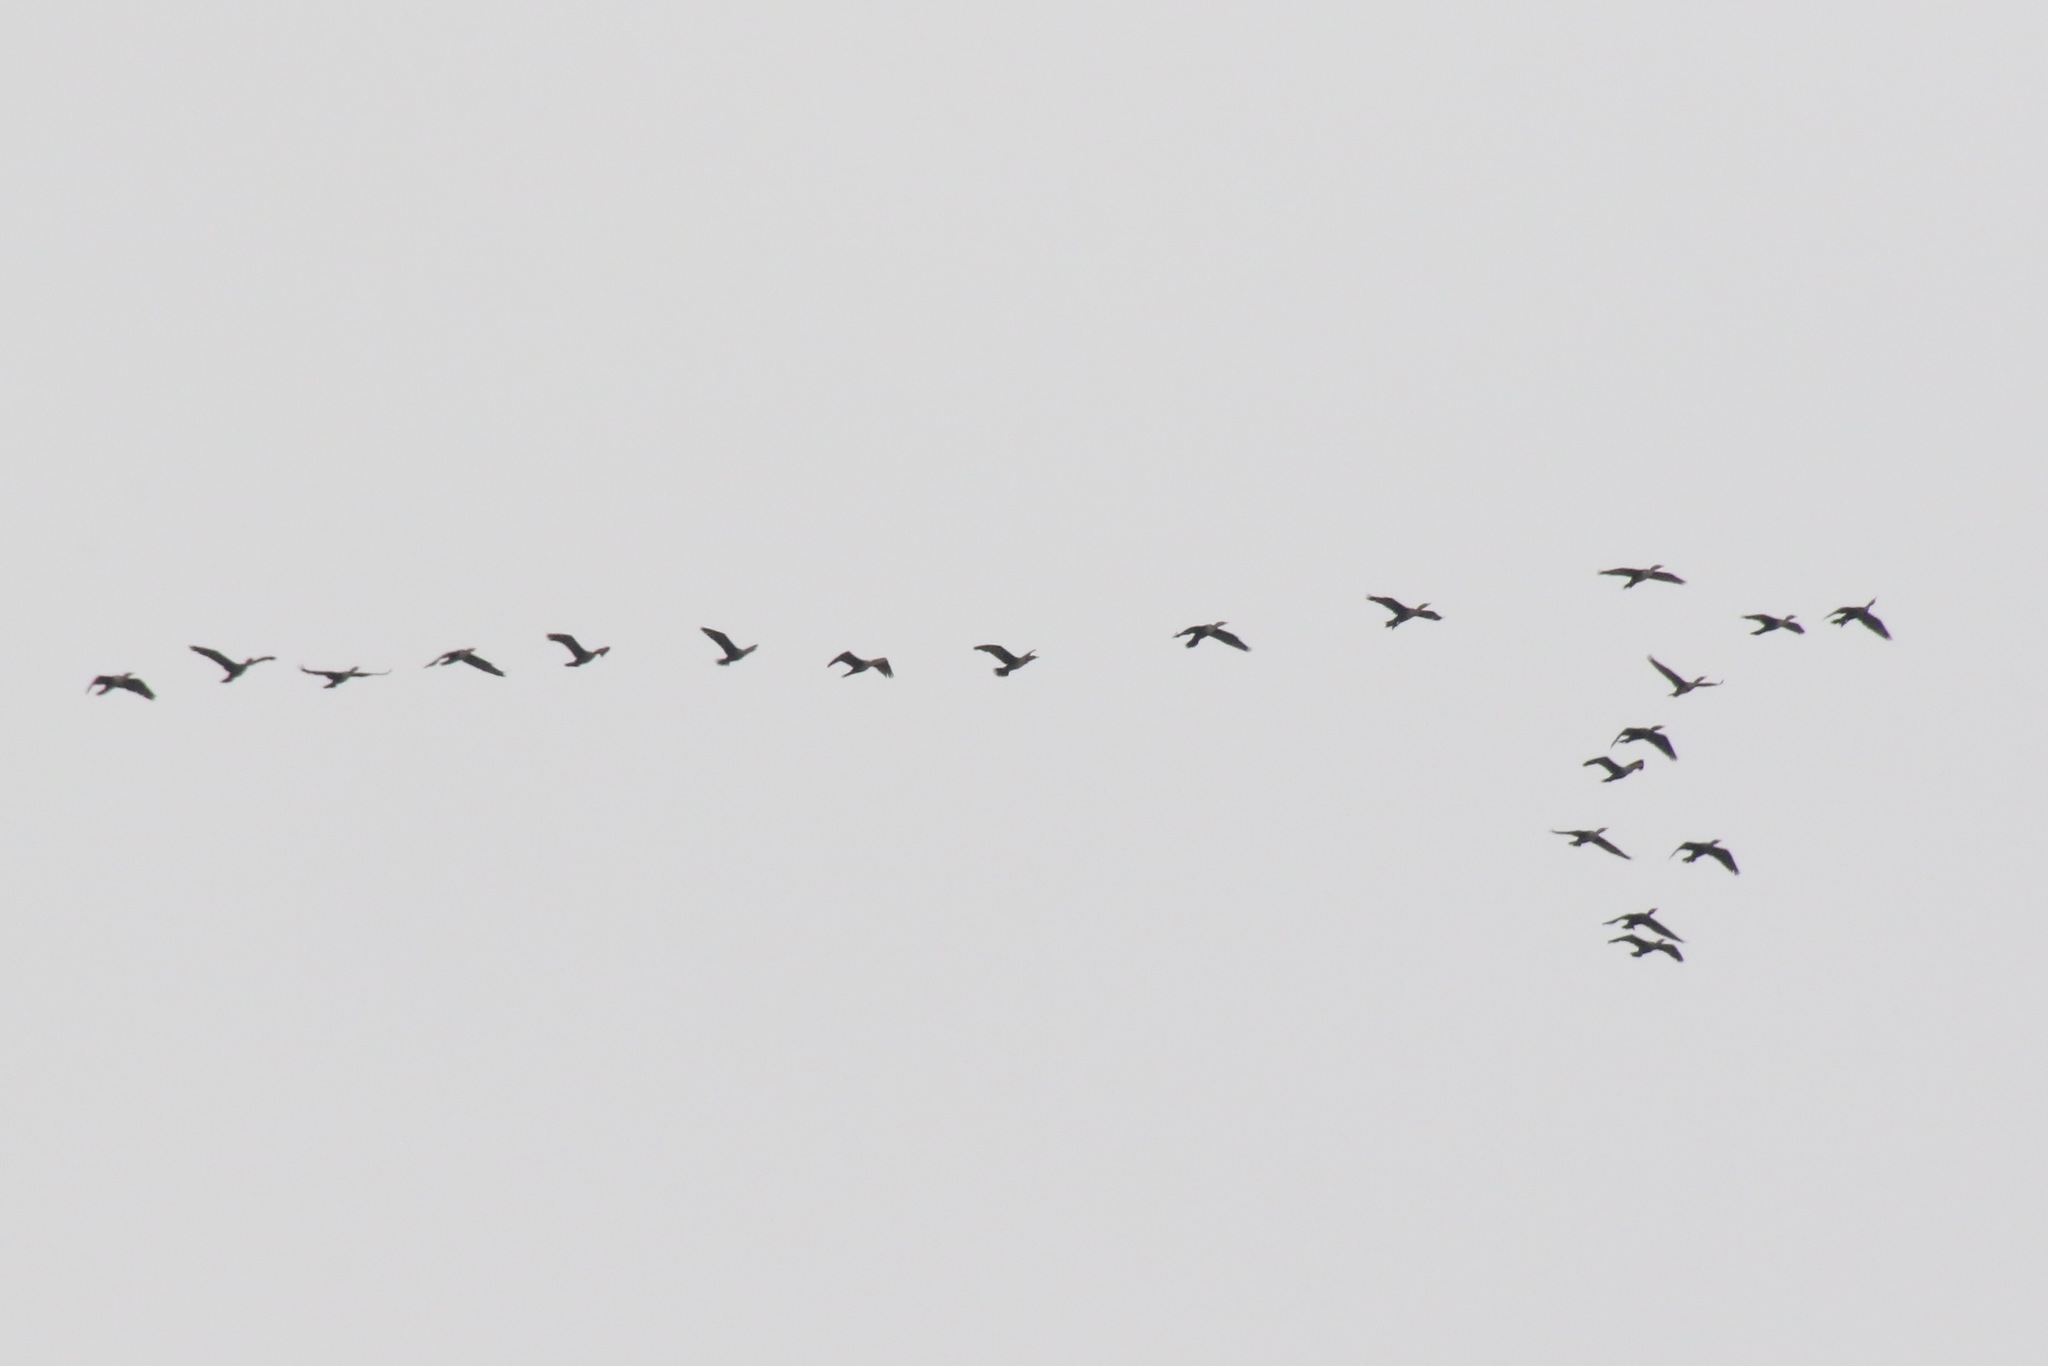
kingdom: Animalia
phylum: Chordata
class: Aves
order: Suliformes
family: Phalacrocoracidae
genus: Phalacrocorax
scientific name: Phalacrocorax auritus
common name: Double-crested cormorant
